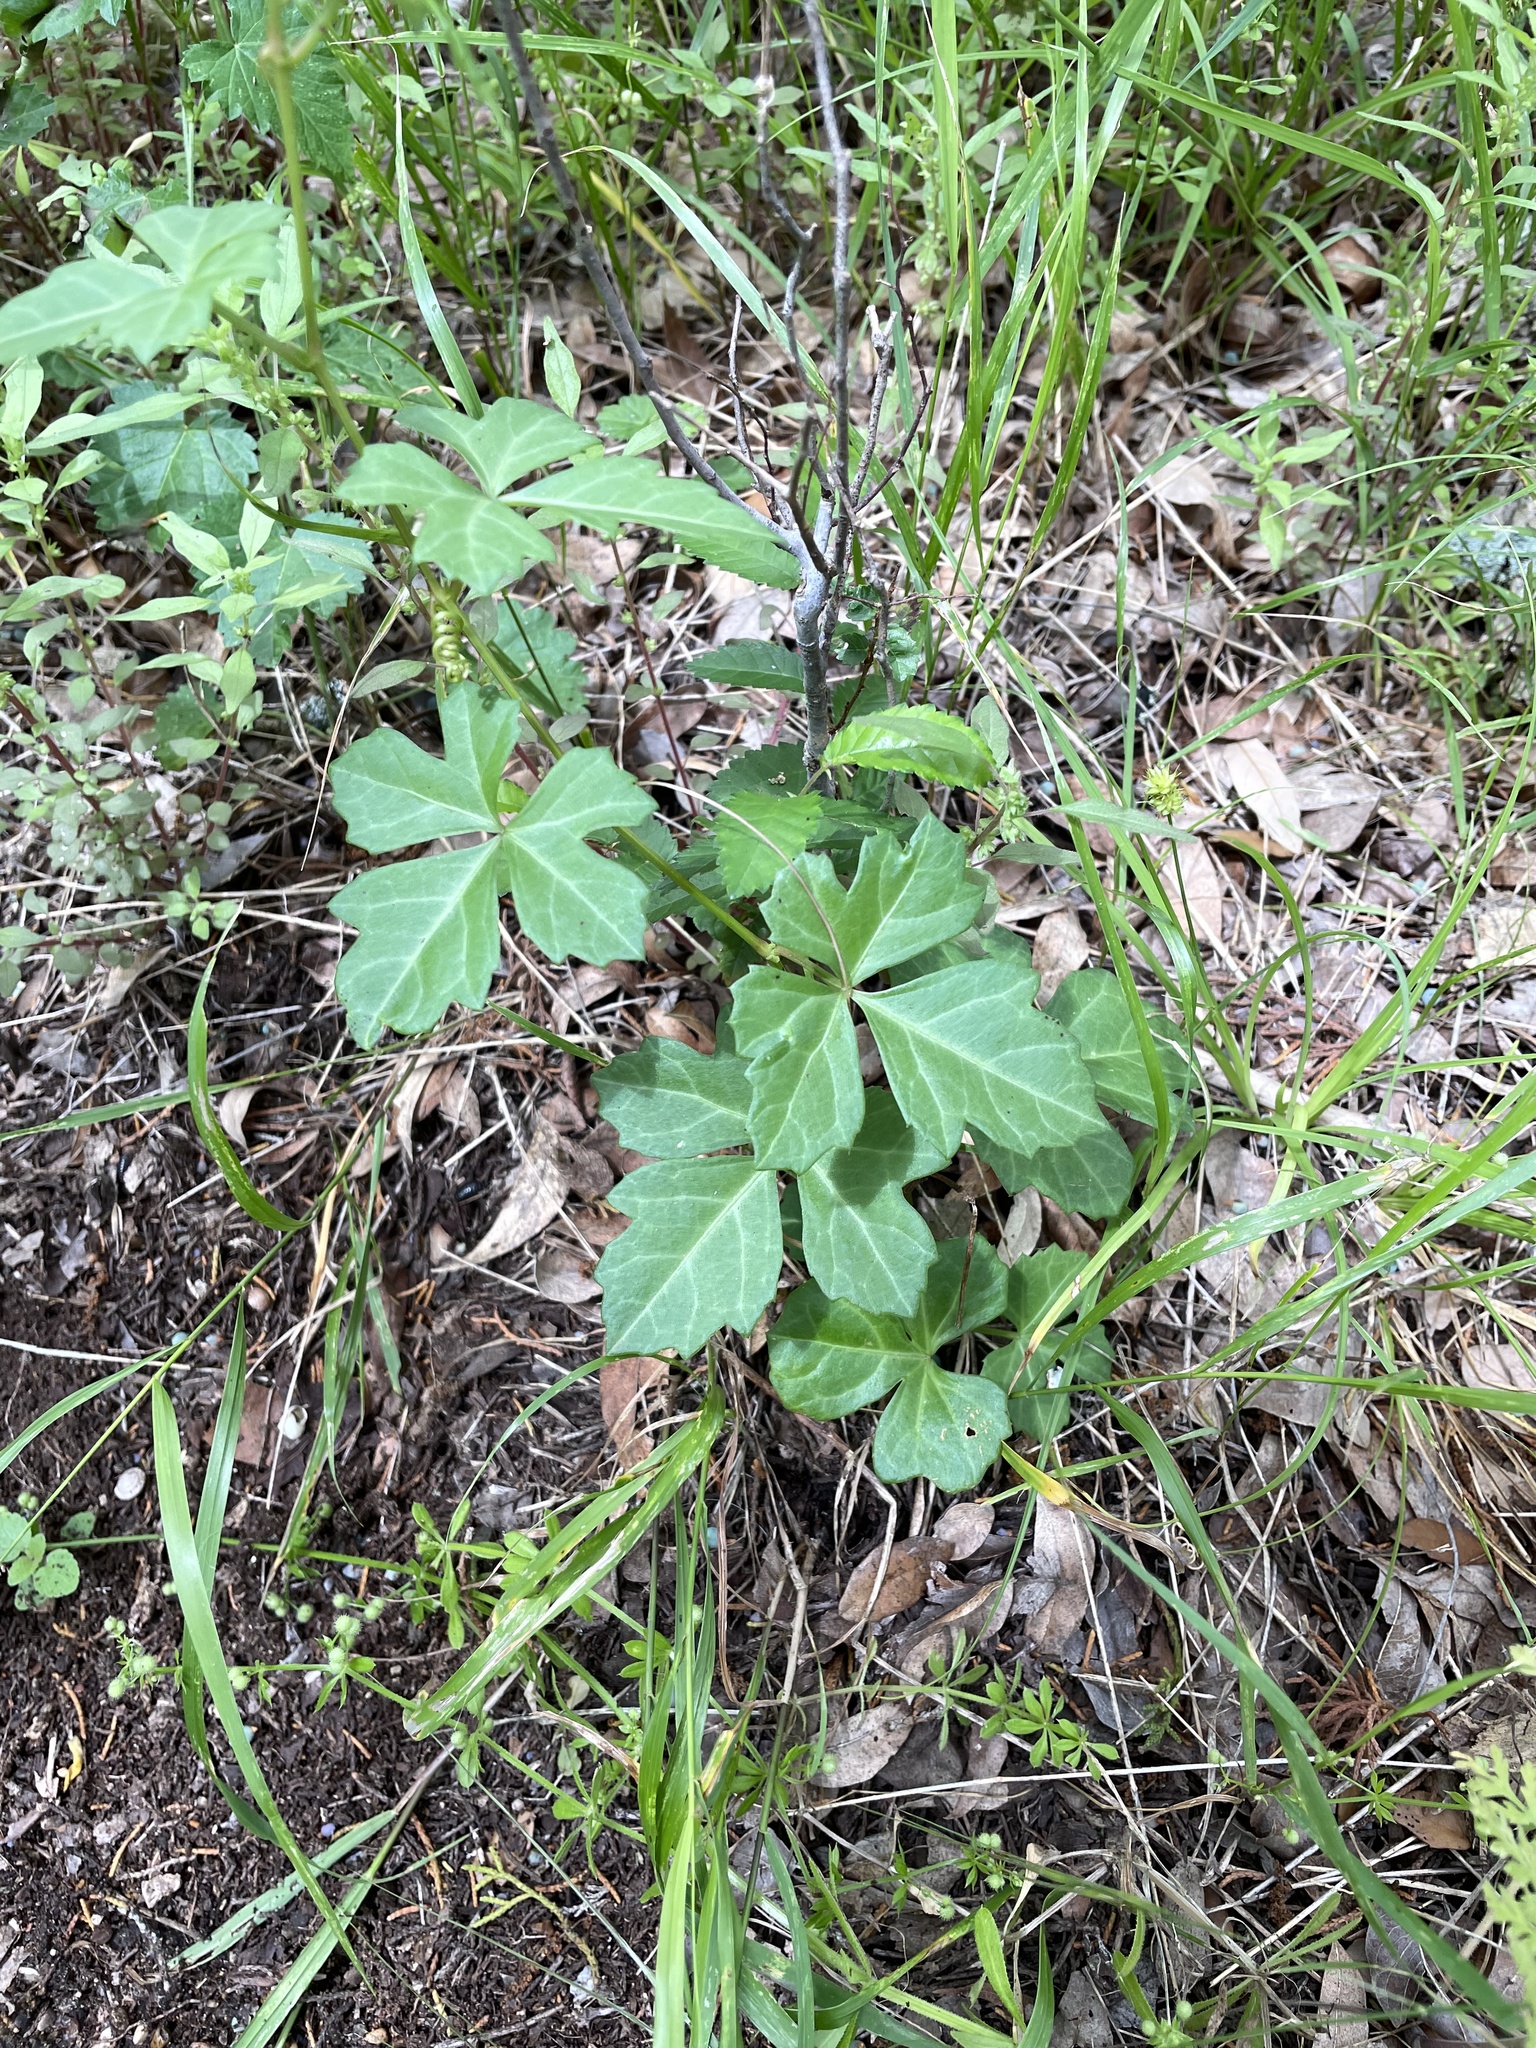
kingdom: Plantae
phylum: Tracheophyta
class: Magnoliopsida
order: Vitales
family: Vitaceae
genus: Cissus
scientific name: Cissus trifoliata
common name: Vine-sorrel
